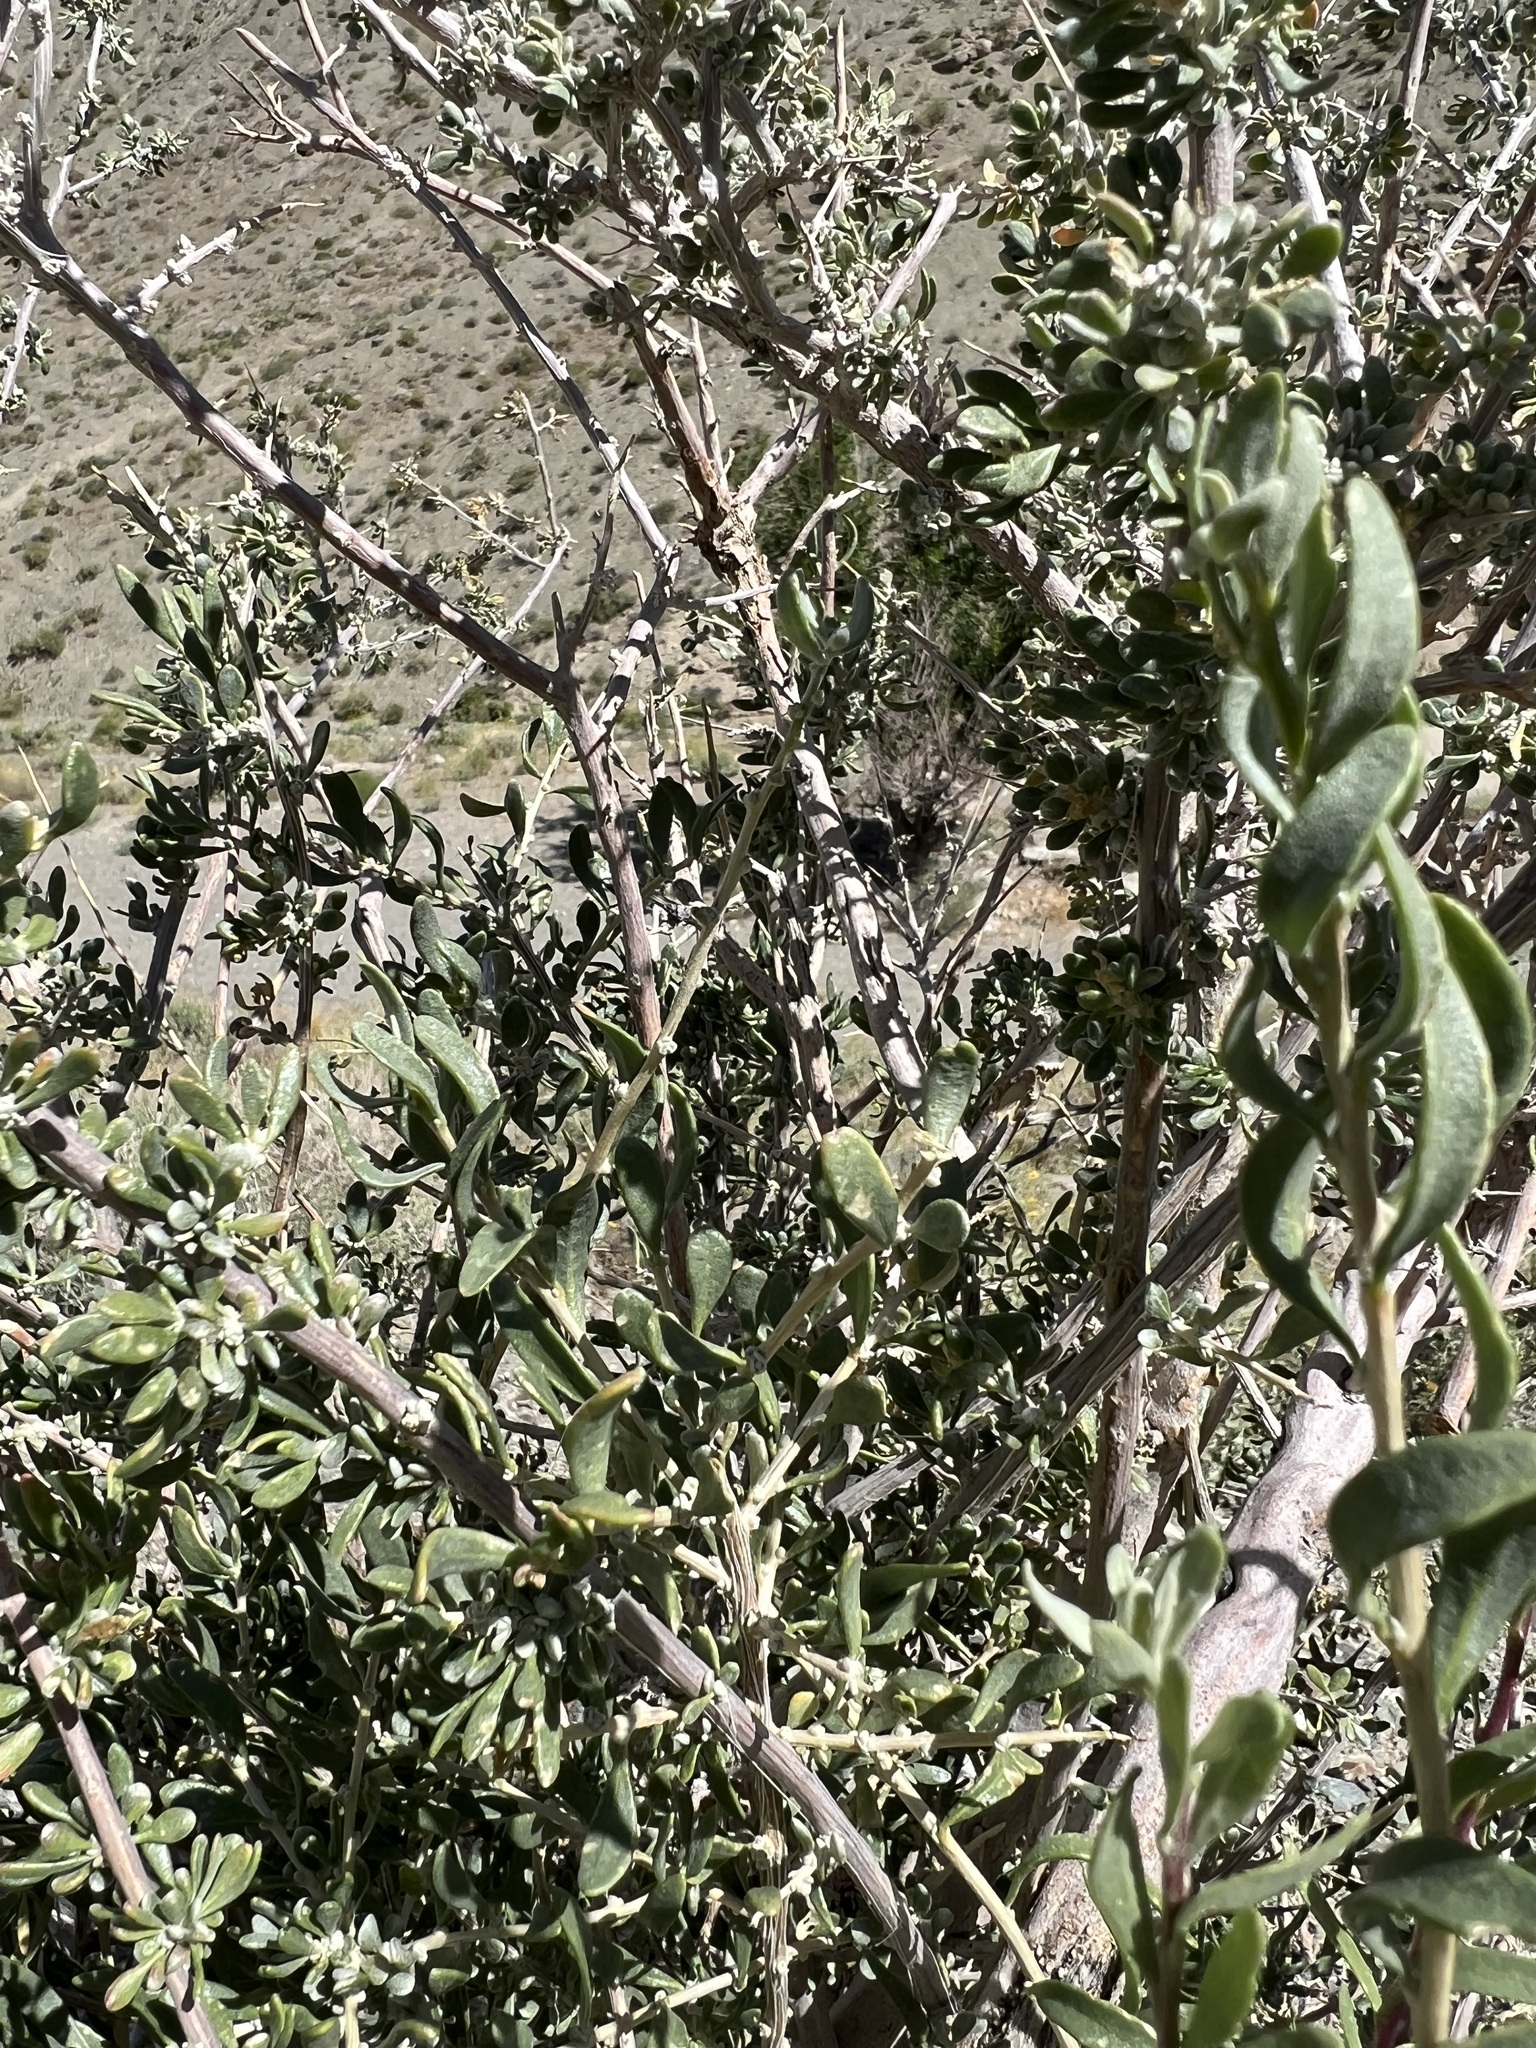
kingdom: Plantae
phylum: Tracheophyta
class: Magnoliopsida
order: Caryophyllales
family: Amaranthaceae
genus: Grayia
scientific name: Grayia spinosa
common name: Spiny hopsage
